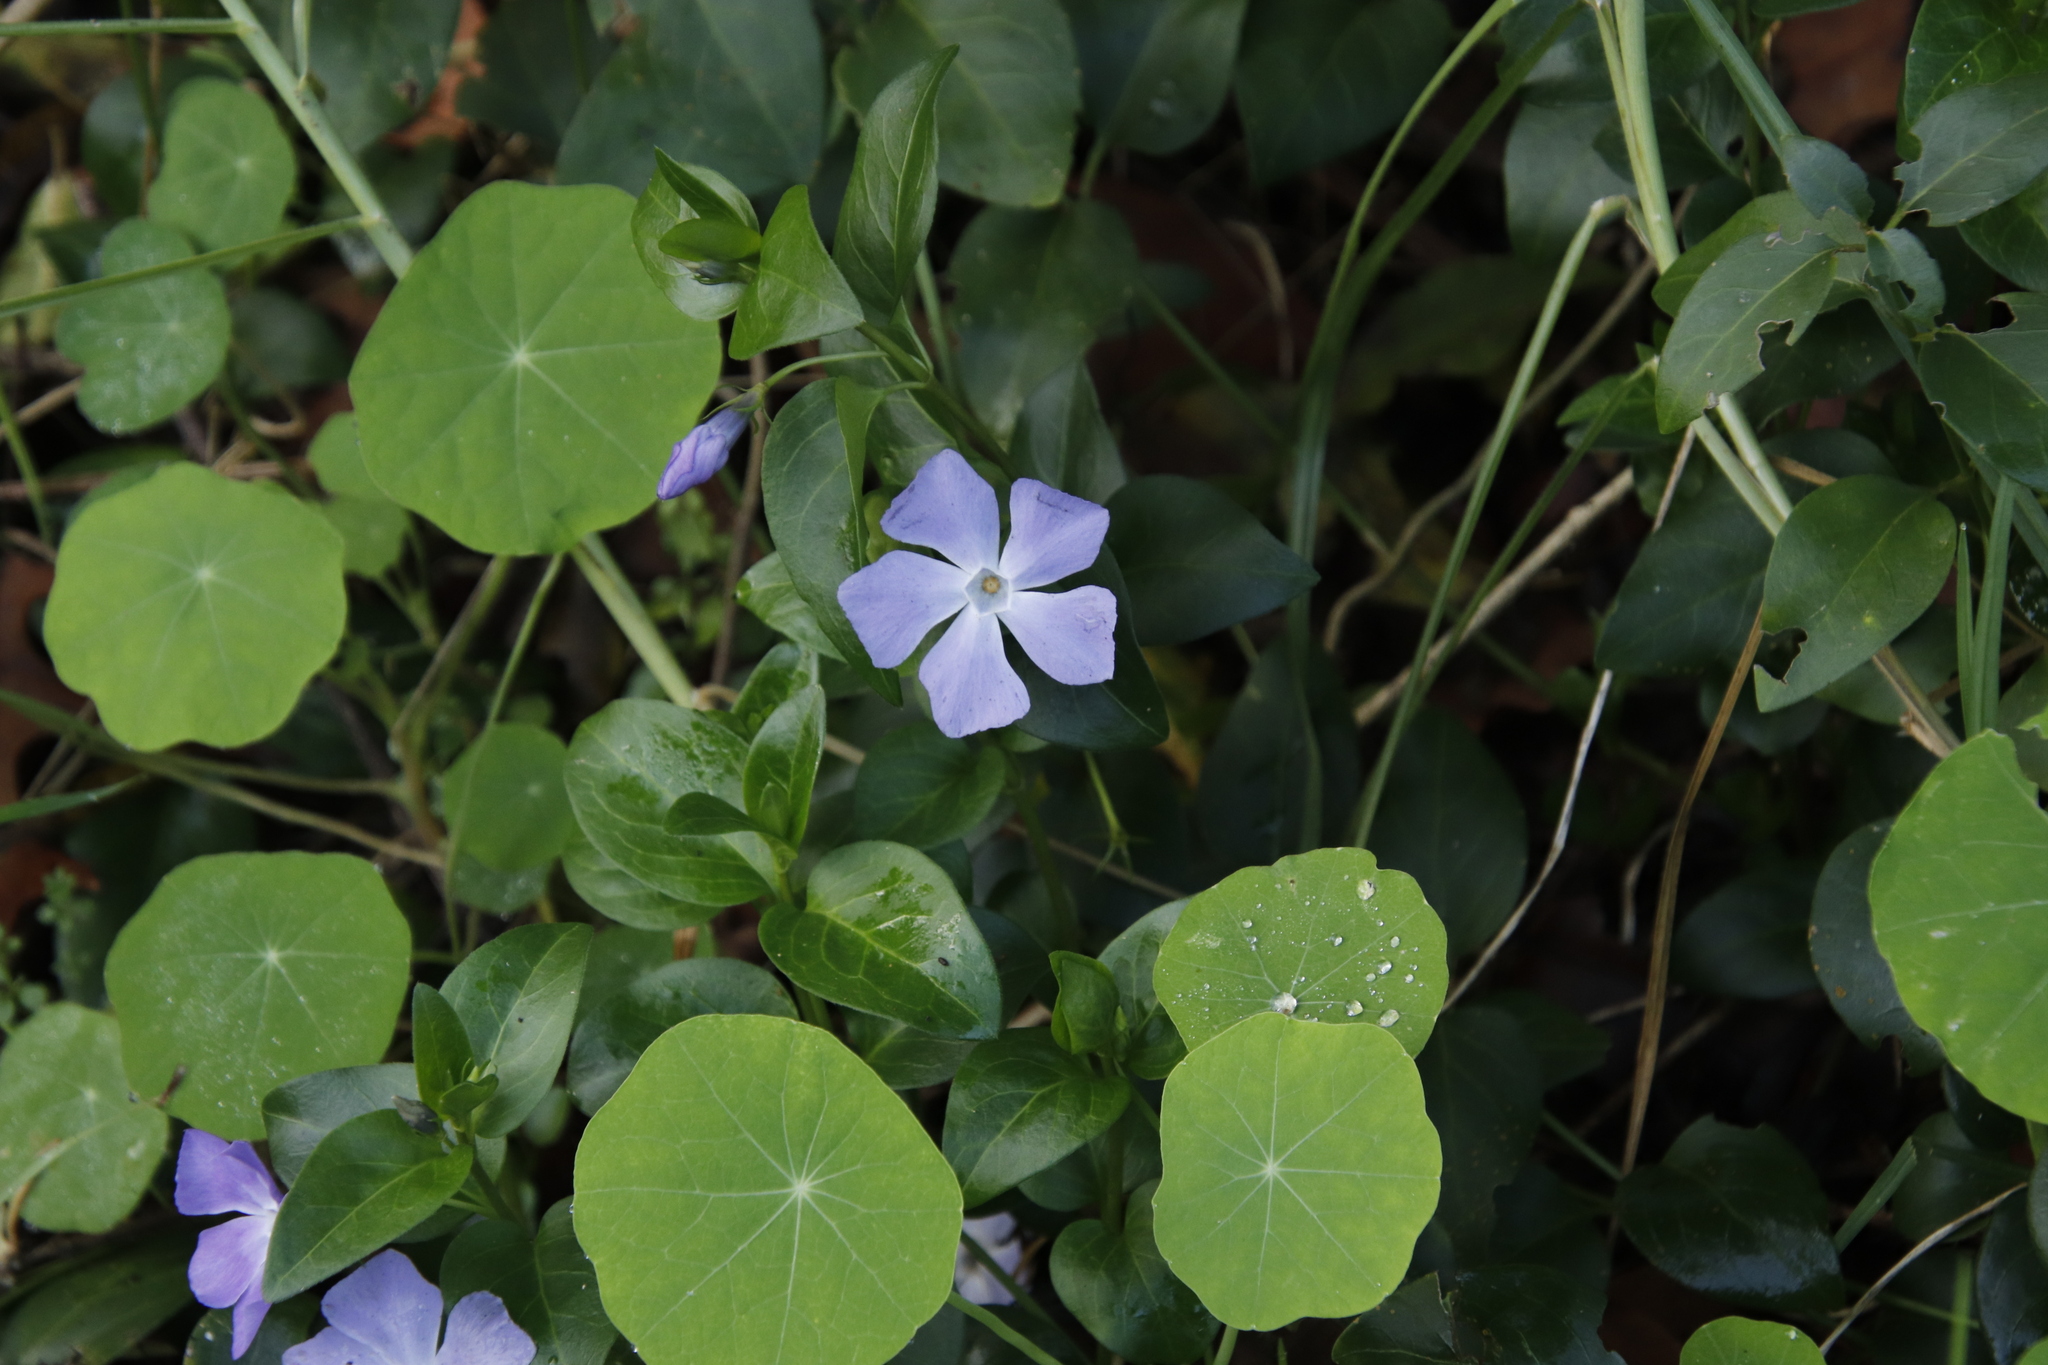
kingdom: Plantae
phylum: Tracheophyta
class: Magnoliopsida
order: Gentianales
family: Apocynaceae
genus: Vinca
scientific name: Vinca major
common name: Greater periwinkle
